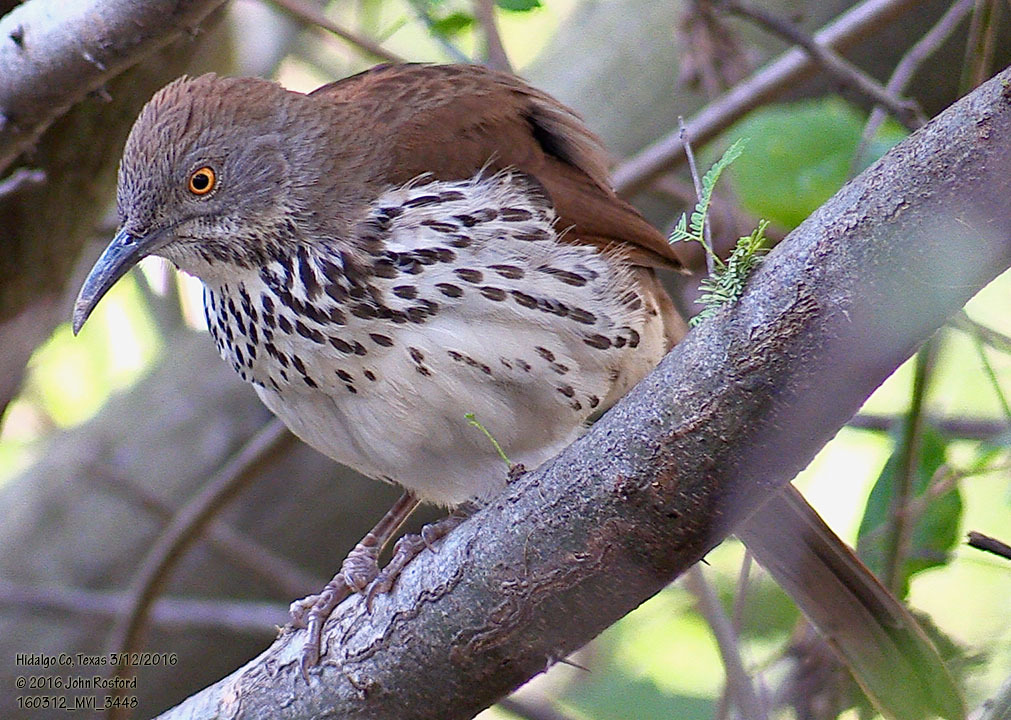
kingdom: Animalia
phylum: Chordata
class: Aves
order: Passeriformes
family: Mimidae
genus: Toxostoma
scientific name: Toxostoma longirostre
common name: Long-billed thrasher
